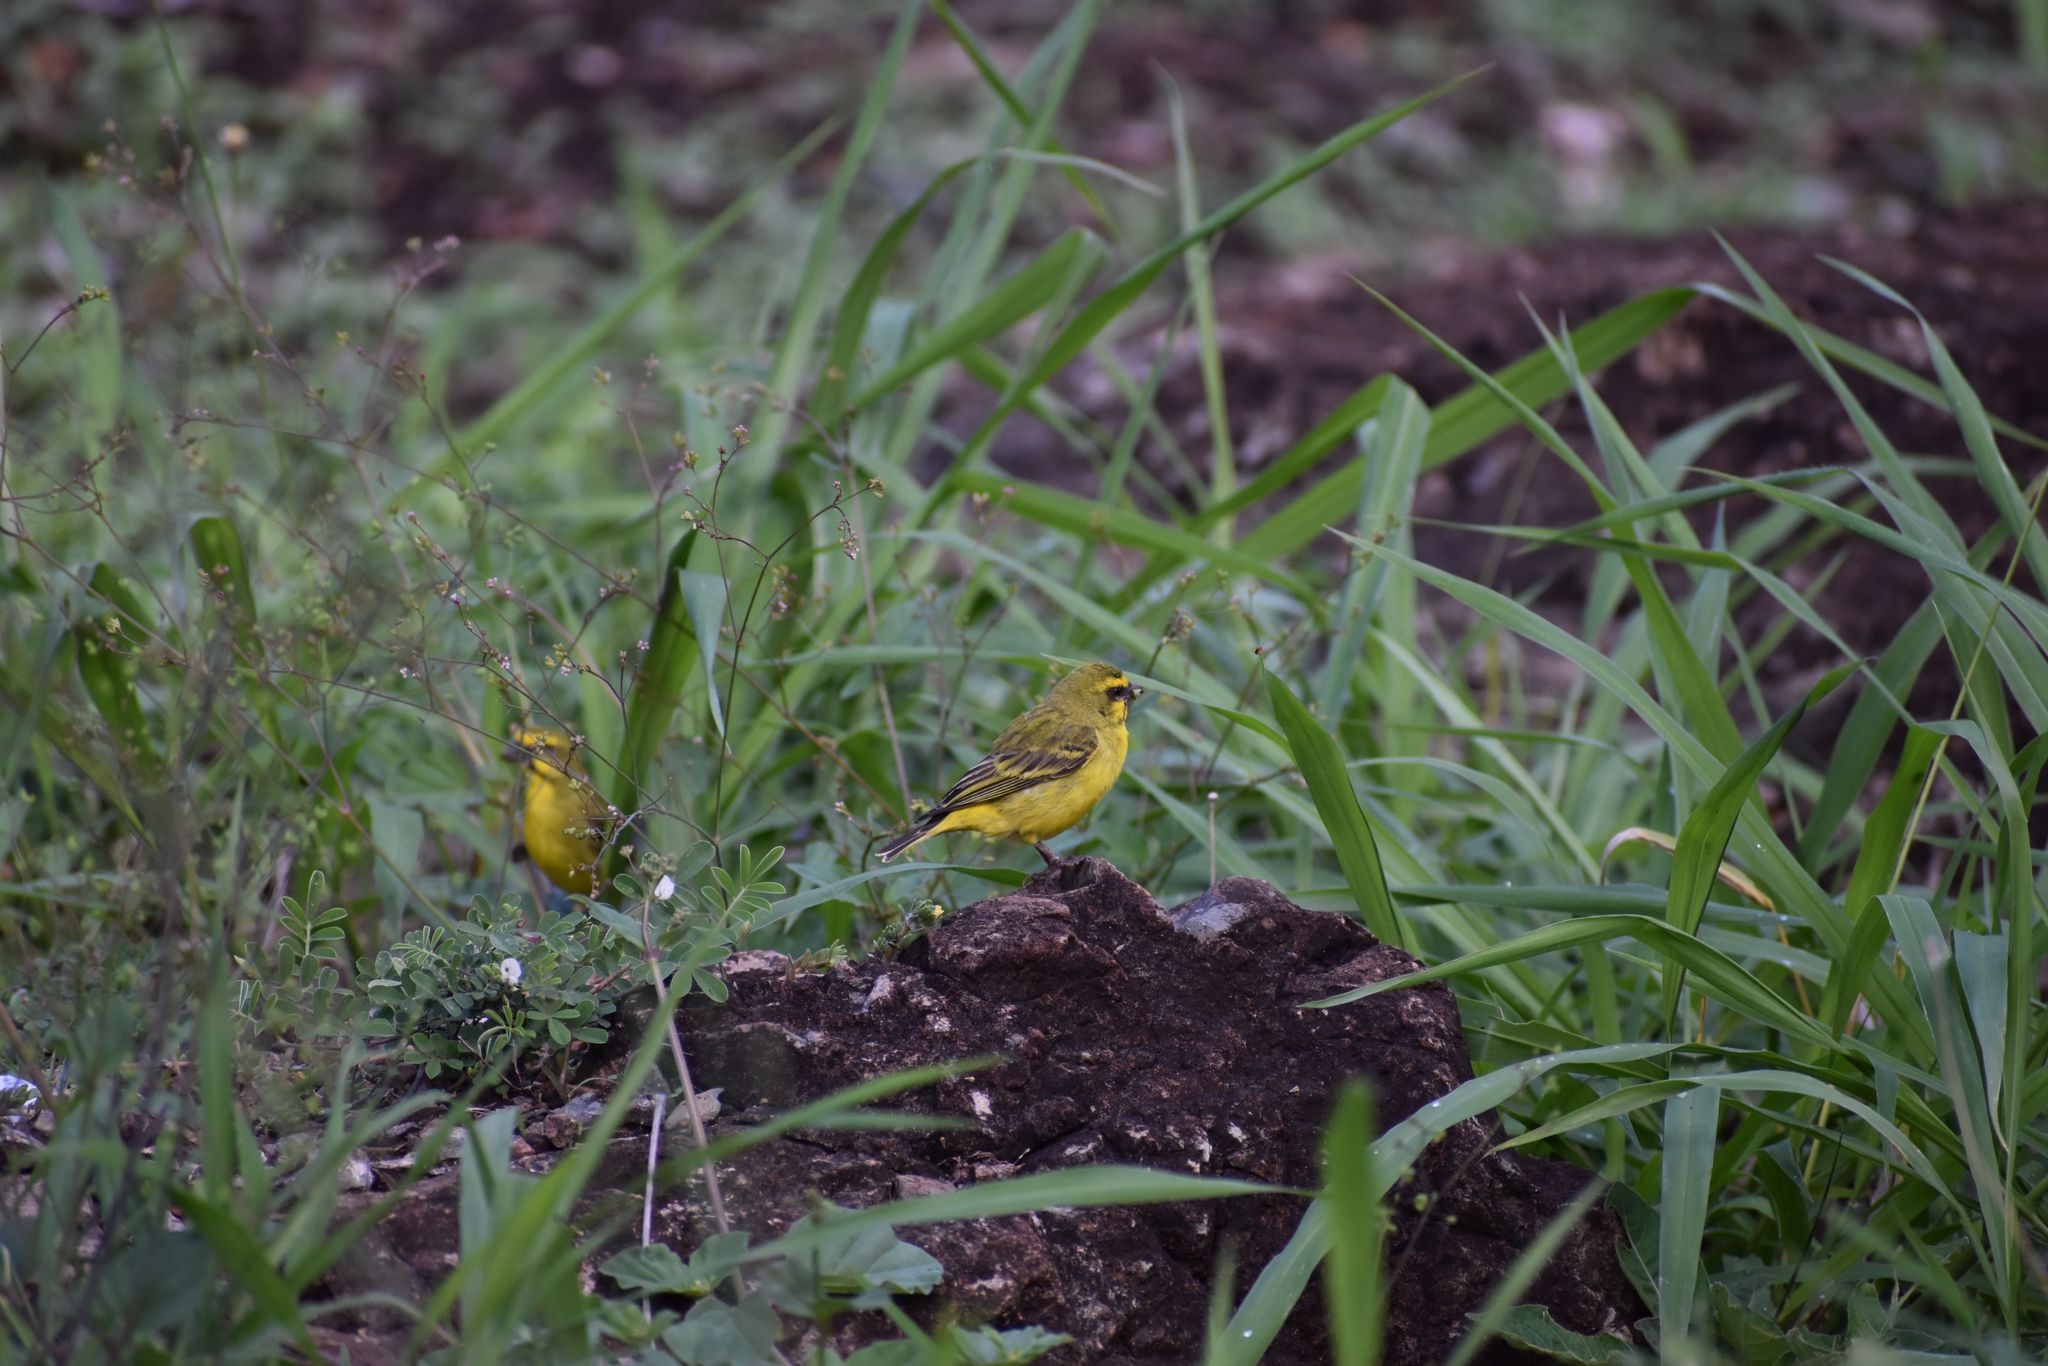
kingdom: Animalia
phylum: Chordata
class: Aves
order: Passeriformes
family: Fringillidae
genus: Crithagra
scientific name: Crithagra sulphurata
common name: Brimstone canary
